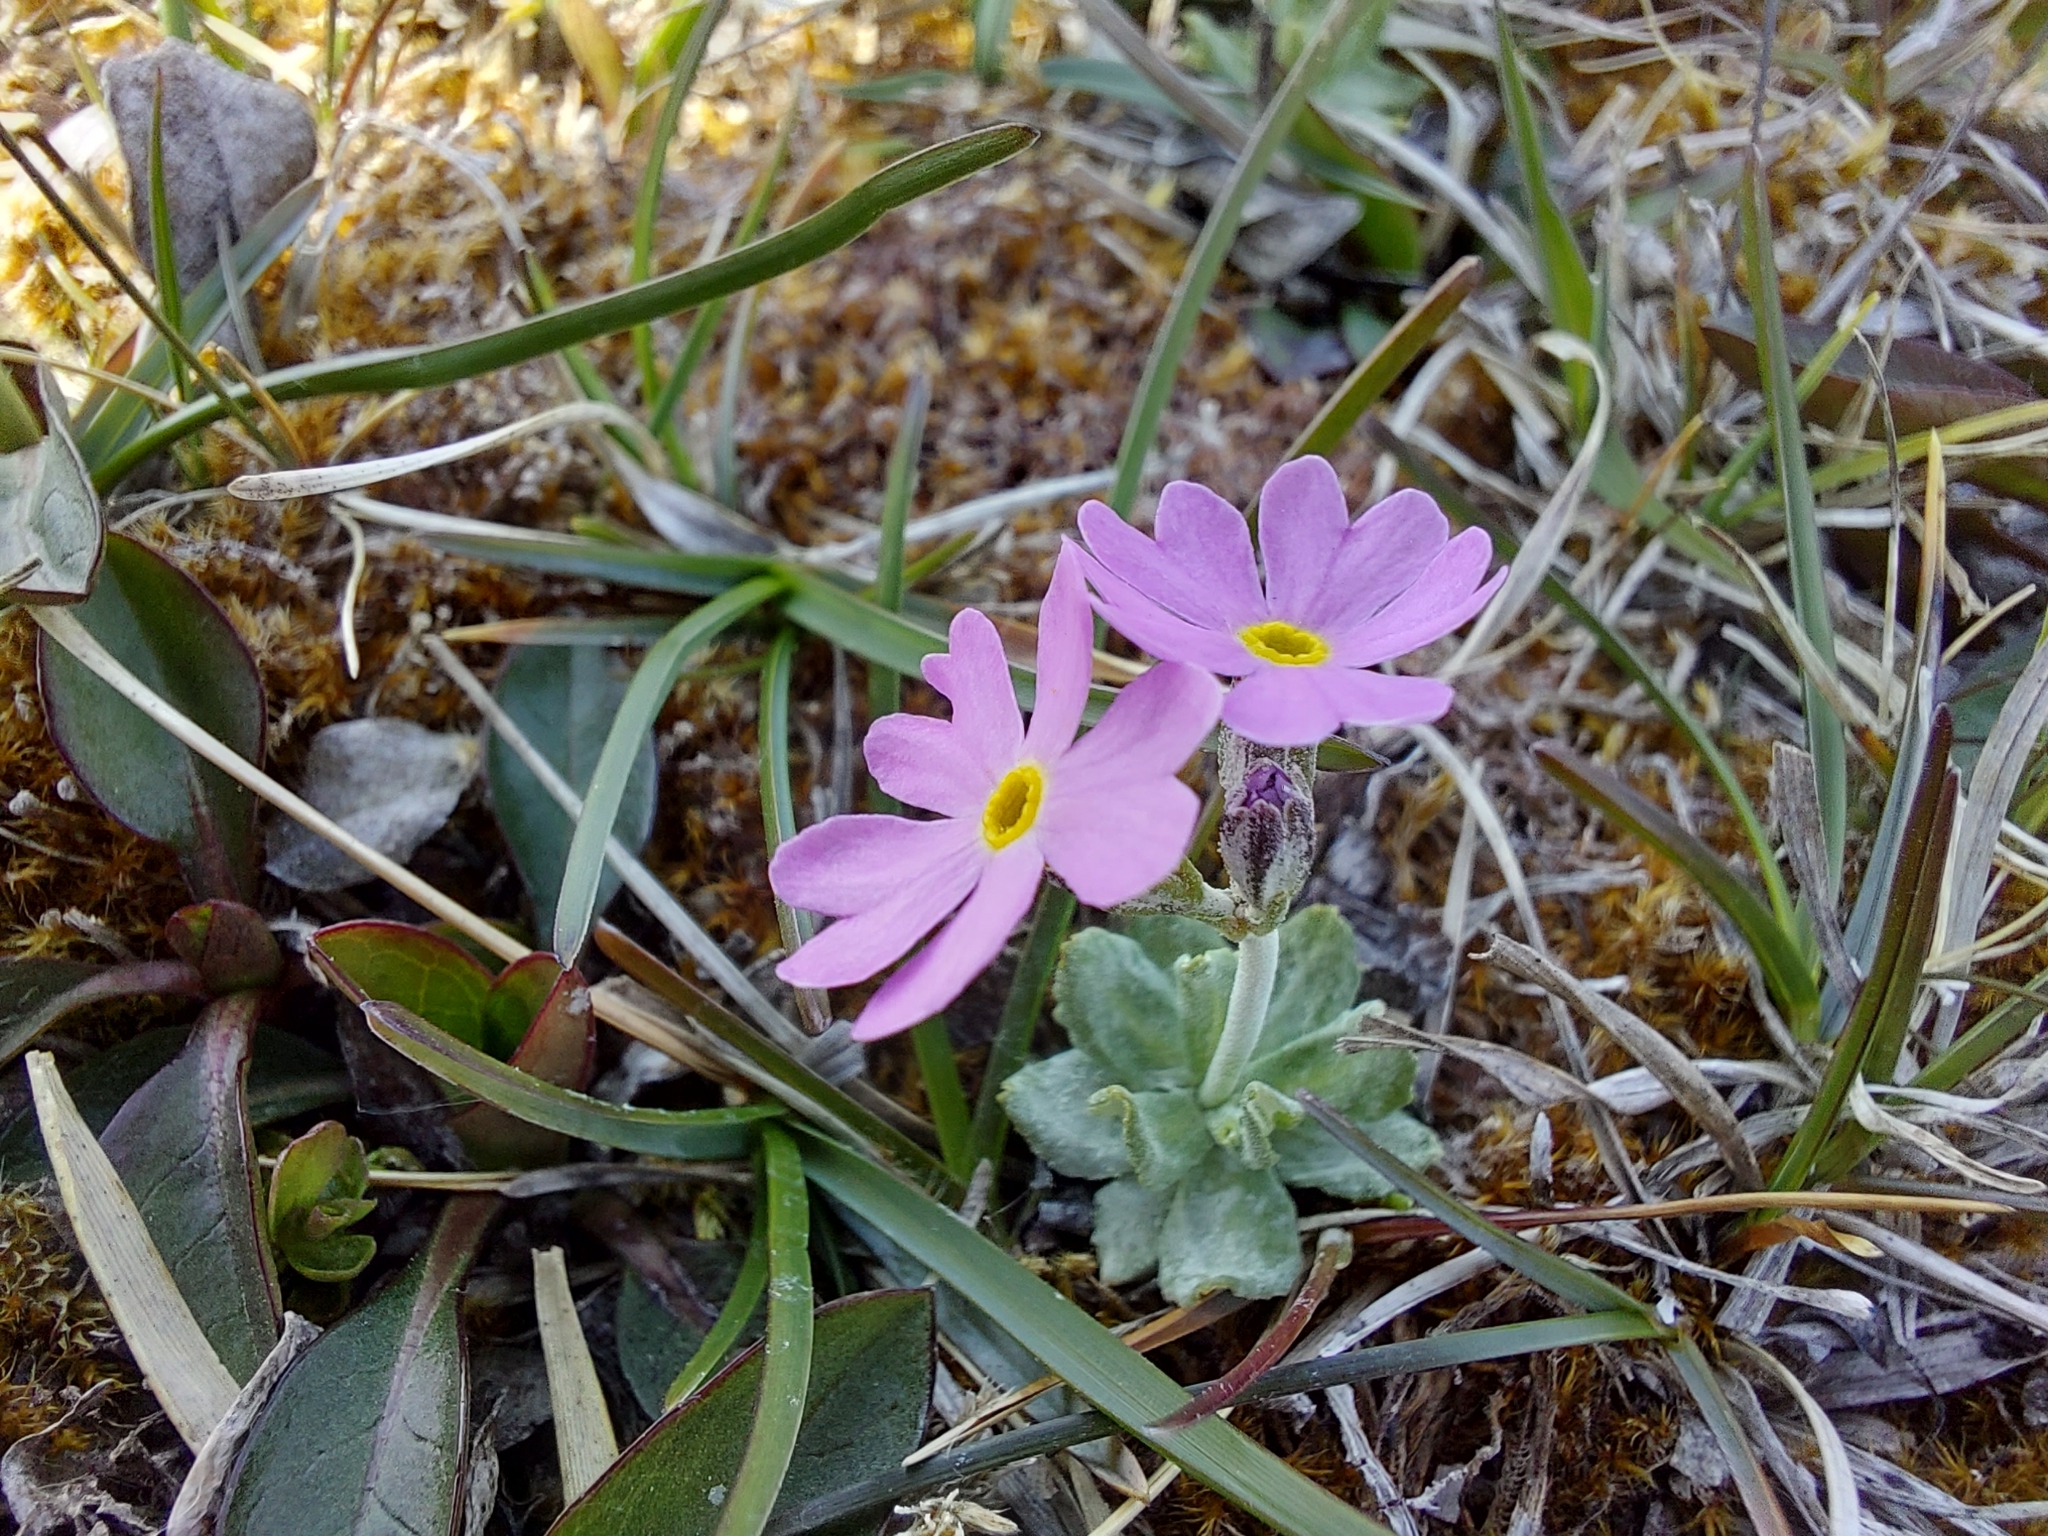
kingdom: Plantae
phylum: Tracheophyta
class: Magnoliopsida
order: Ericales
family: Primulaceae
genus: Primula
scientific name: Primula farinosa
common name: Bird's-eye primrose
